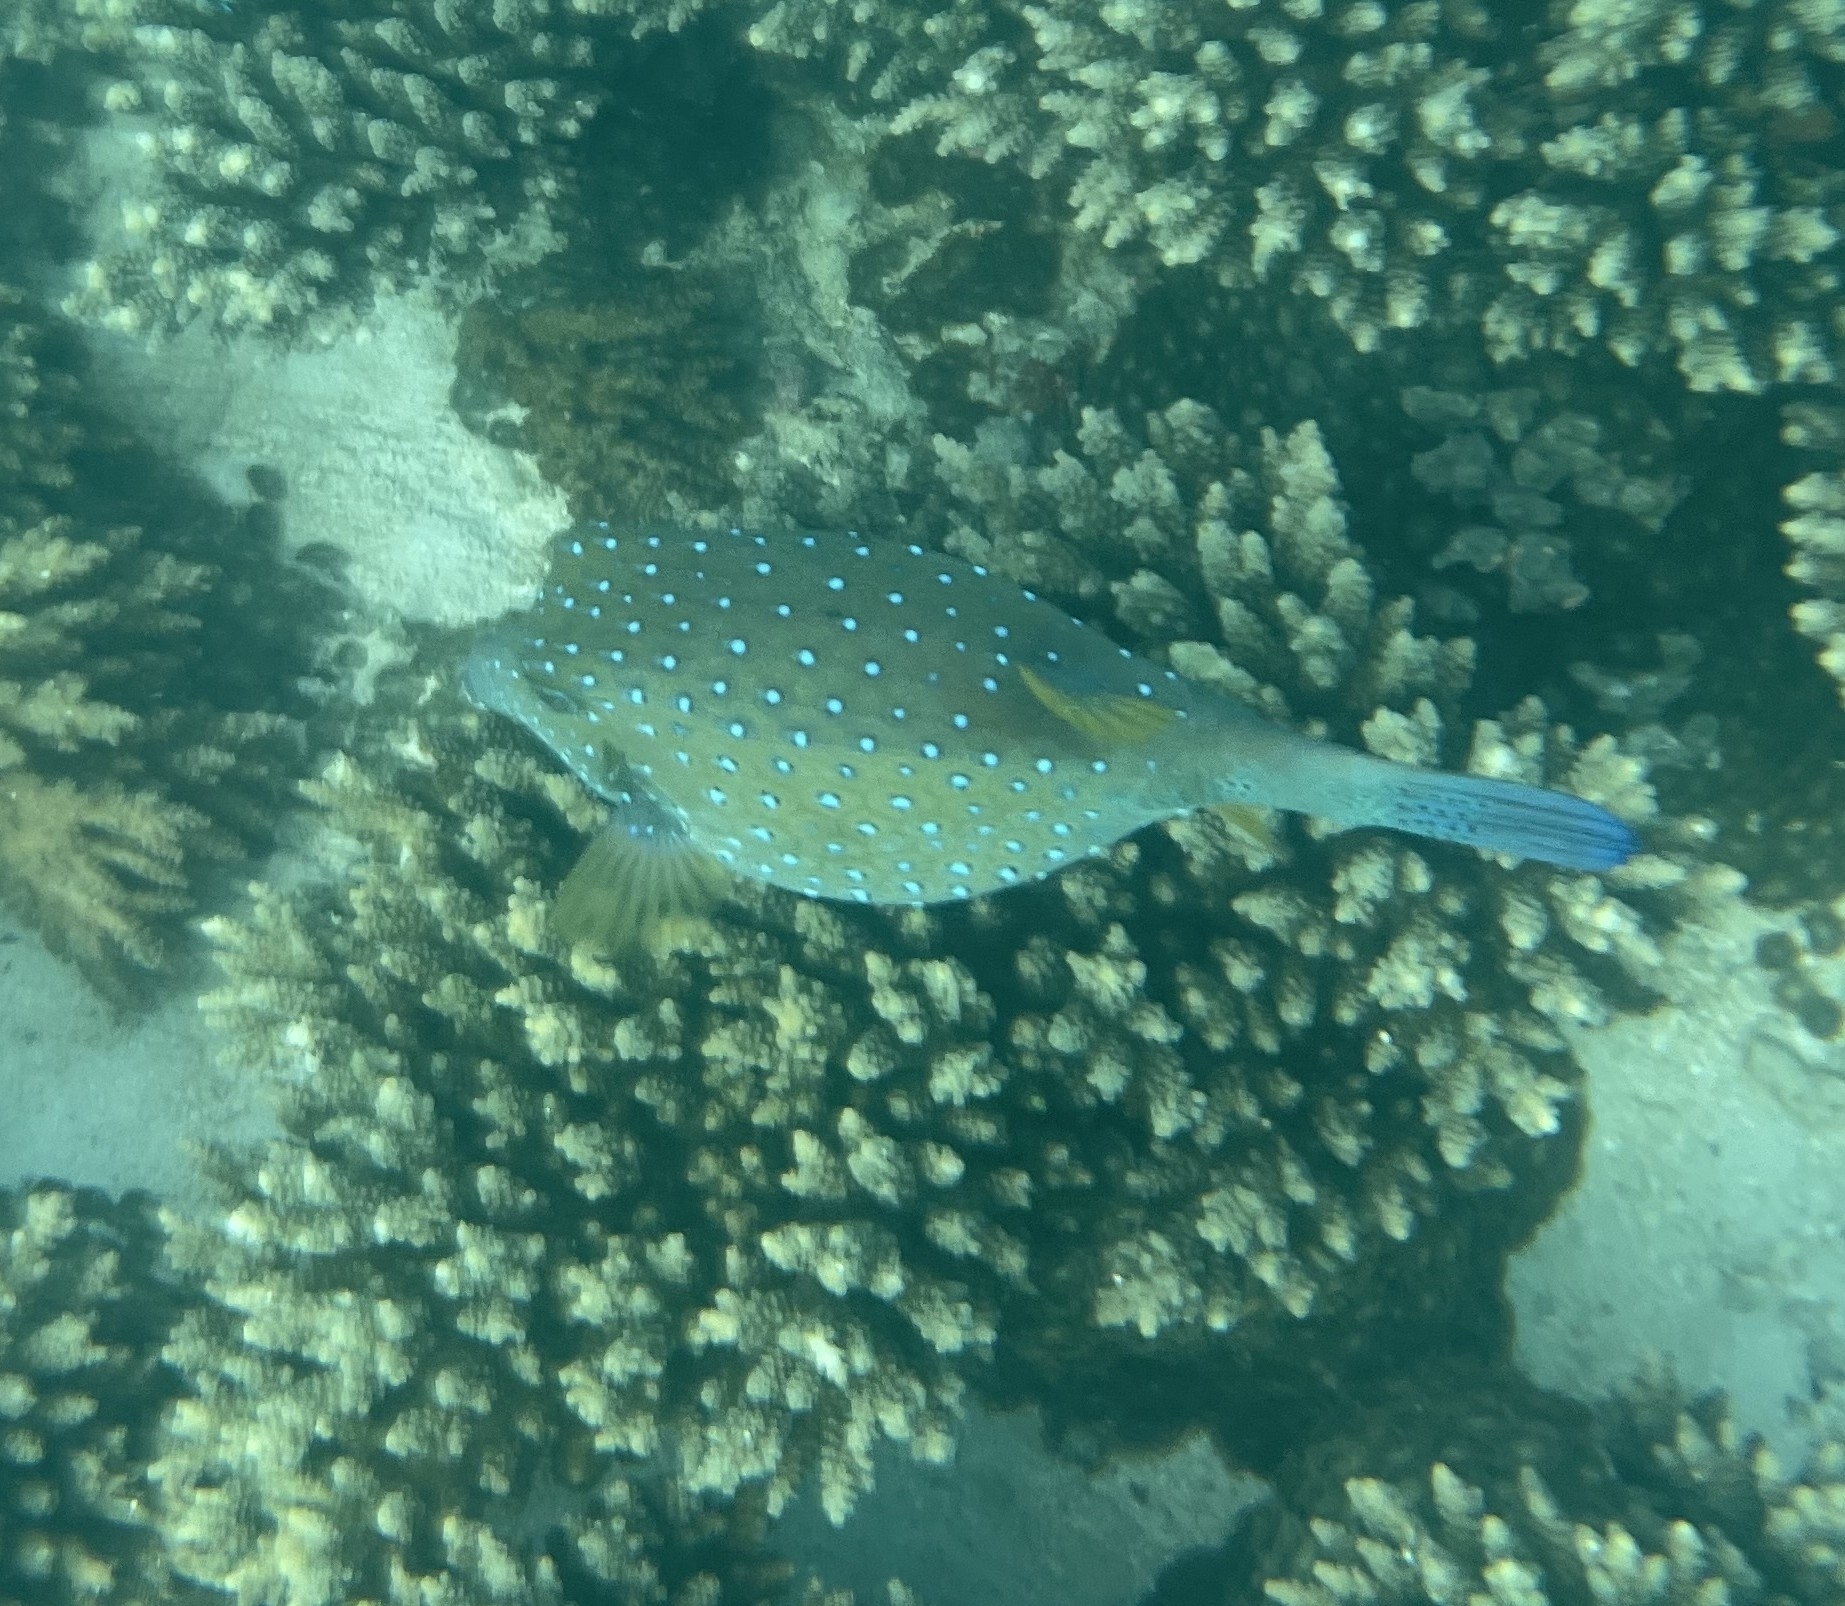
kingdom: Animalia
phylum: Chordata
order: Tetraodontiformes
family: Ostraciidae
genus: Ostracion
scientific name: Ostracion cubicus
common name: Cube trunkfish
